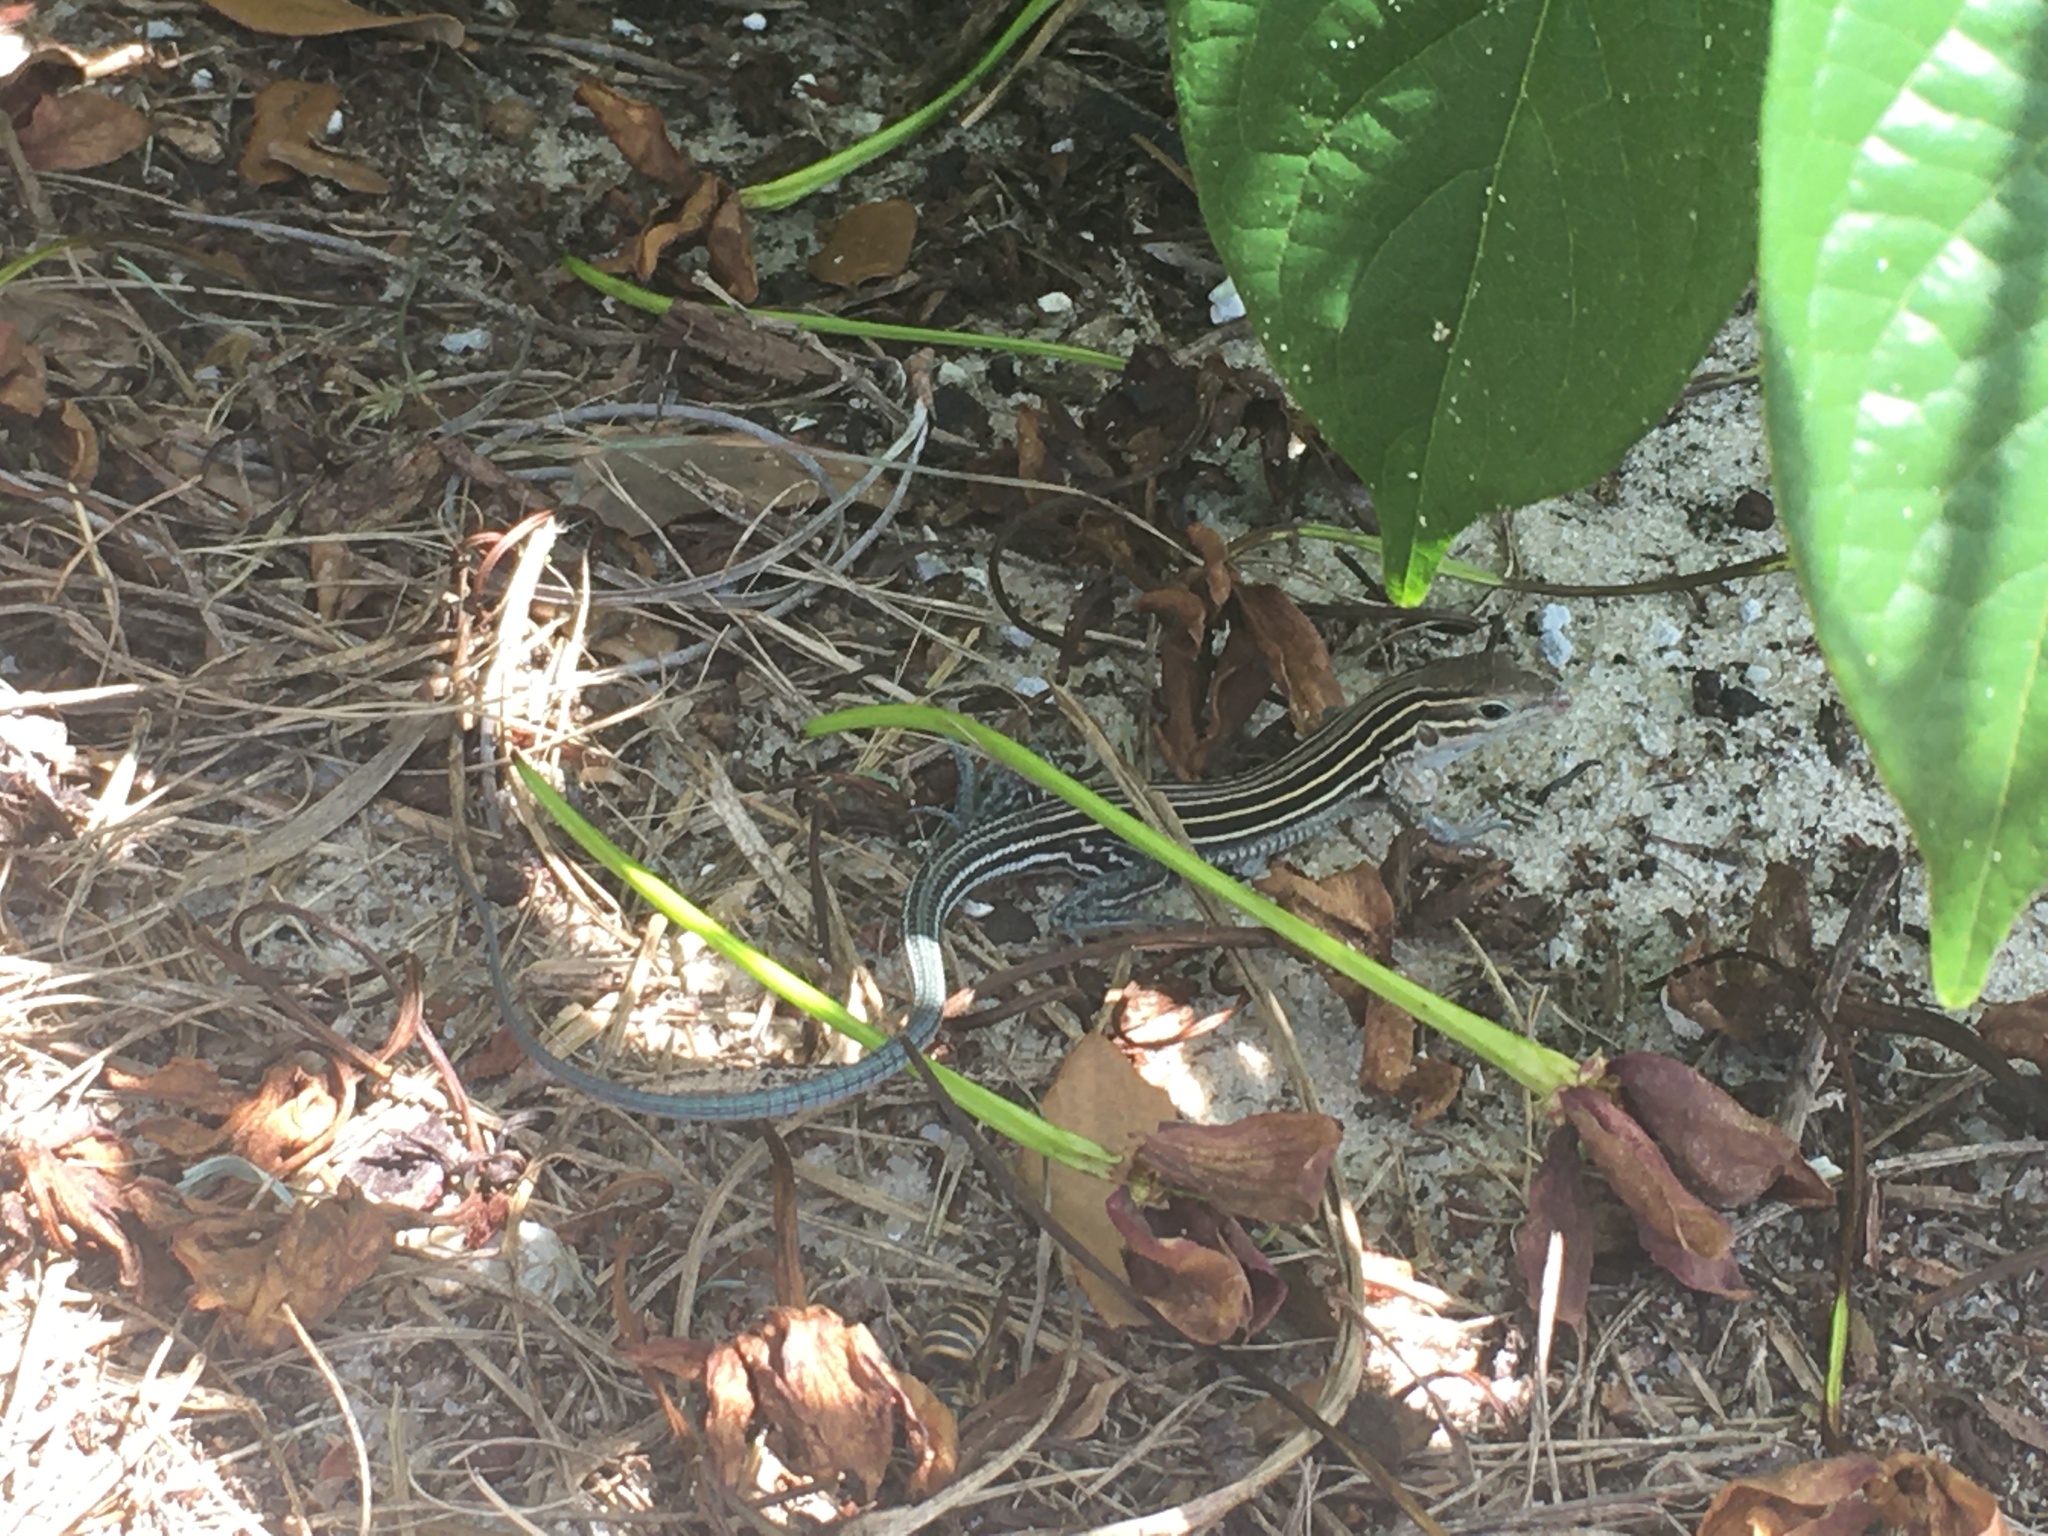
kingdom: Animalia
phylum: Chordata
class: Squamata
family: Teiidae
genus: Aspidoscelis
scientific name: Aspidoscelis sexlineatus
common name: Six-lined racerunner
